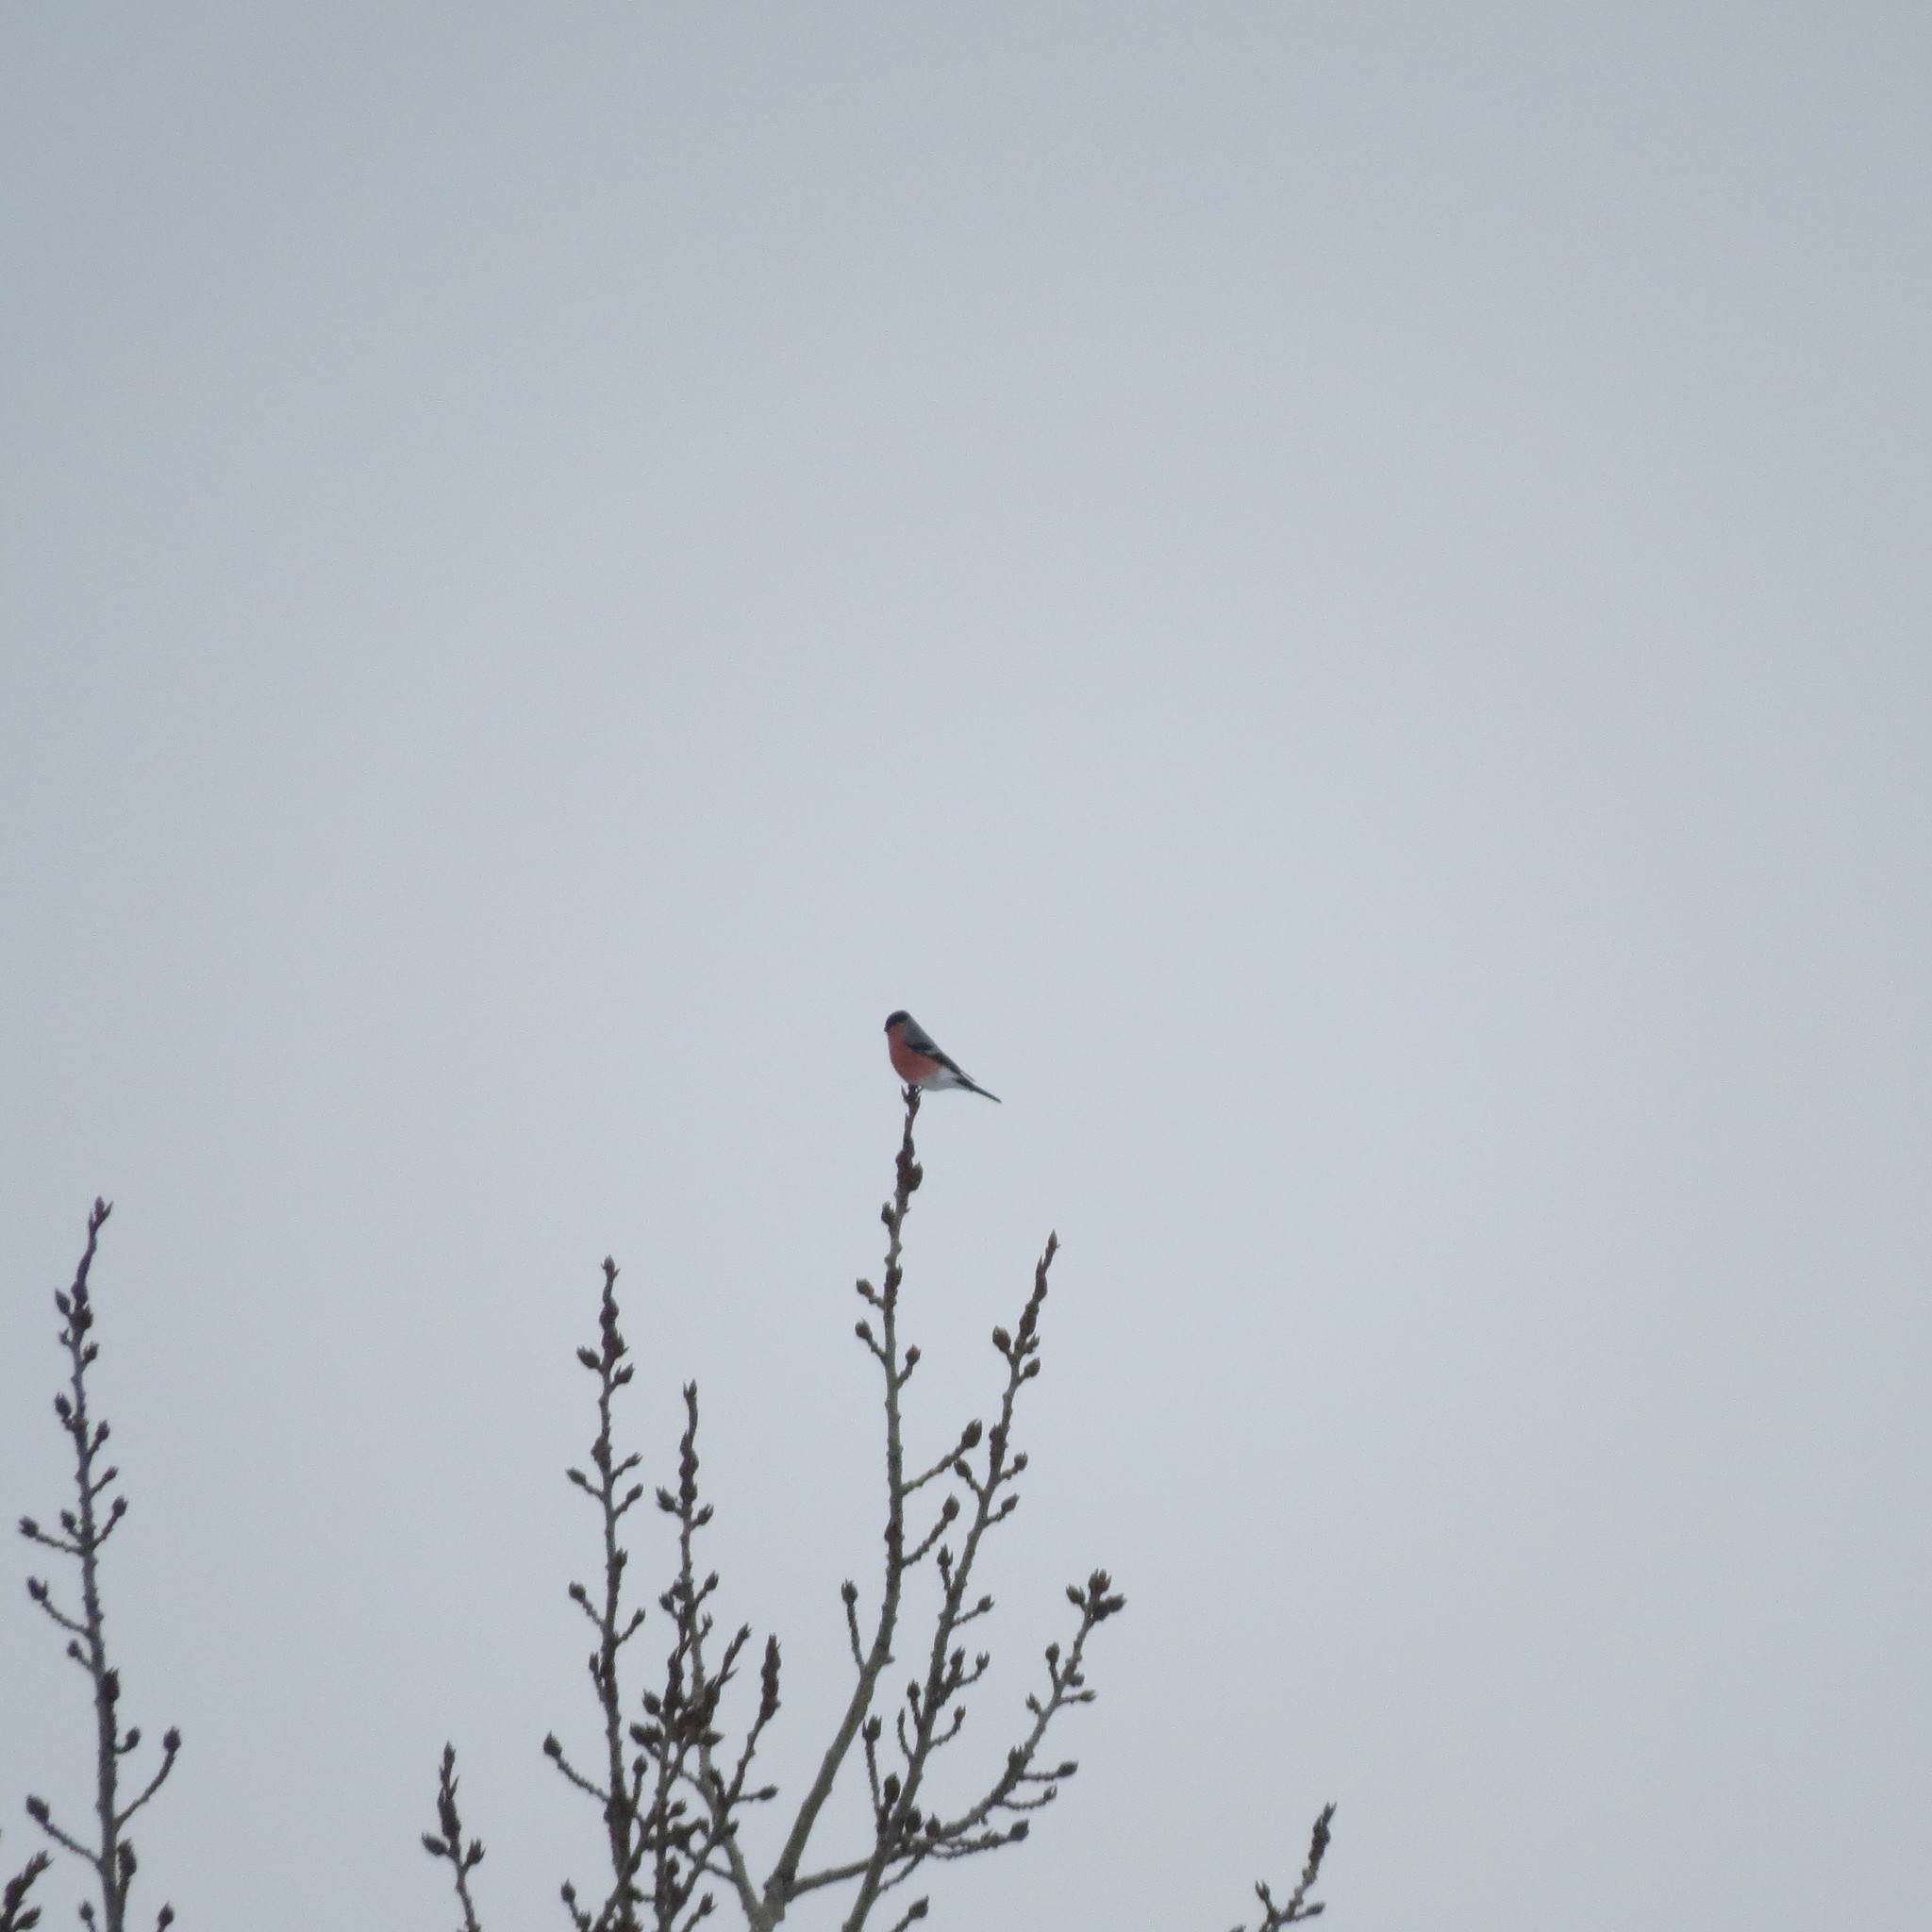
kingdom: Animalia
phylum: Chordata
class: Aves
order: Passeriformes
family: Fringillidae
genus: Pyrrhula
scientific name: Pyrrhula pyrrhula
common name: Eurasian bullfinch
